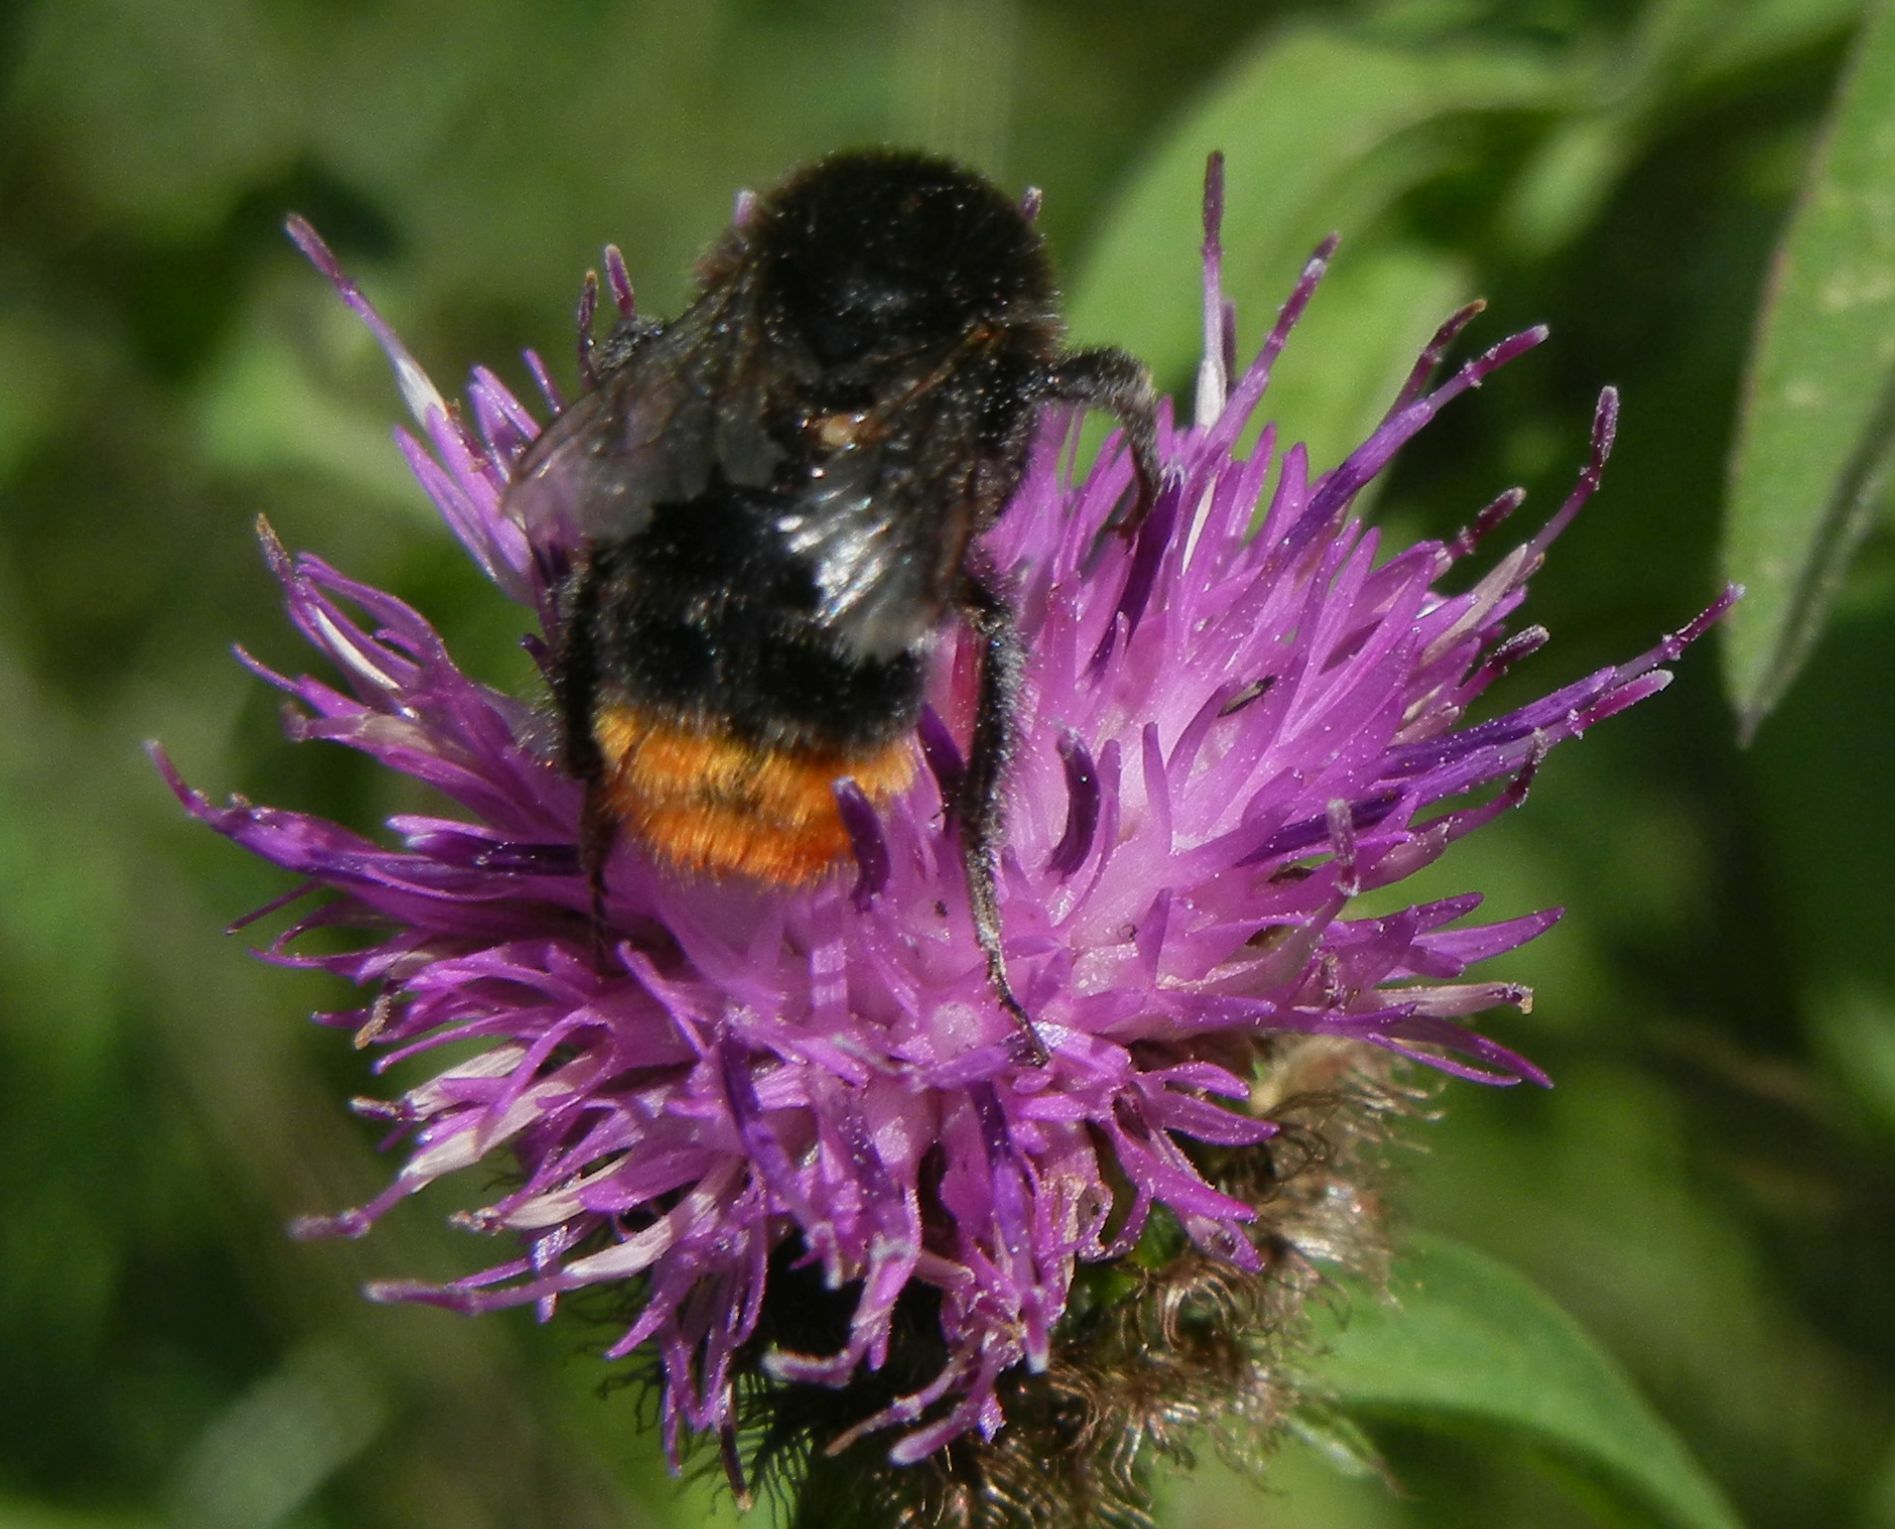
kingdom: Animalia
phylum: Arthropoda
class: Insecta
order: Hymenoptera
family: Apidae
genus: Bombus
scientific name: Bombus lapidarius
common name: Large red-tailed humble-bee
